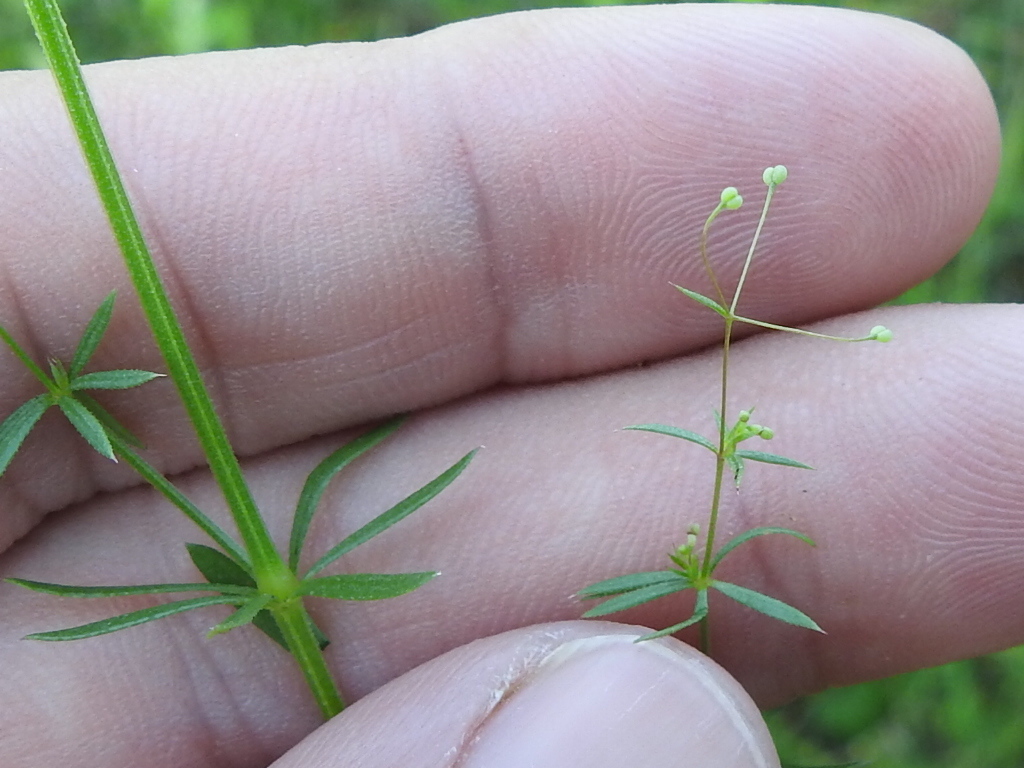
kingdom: Plantae
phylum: Tracheophyta
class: Magnoliopsida
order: Gentianales
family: Rubiaceae
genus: Galium
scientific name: Galium tinctorium
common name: Bedstraw
